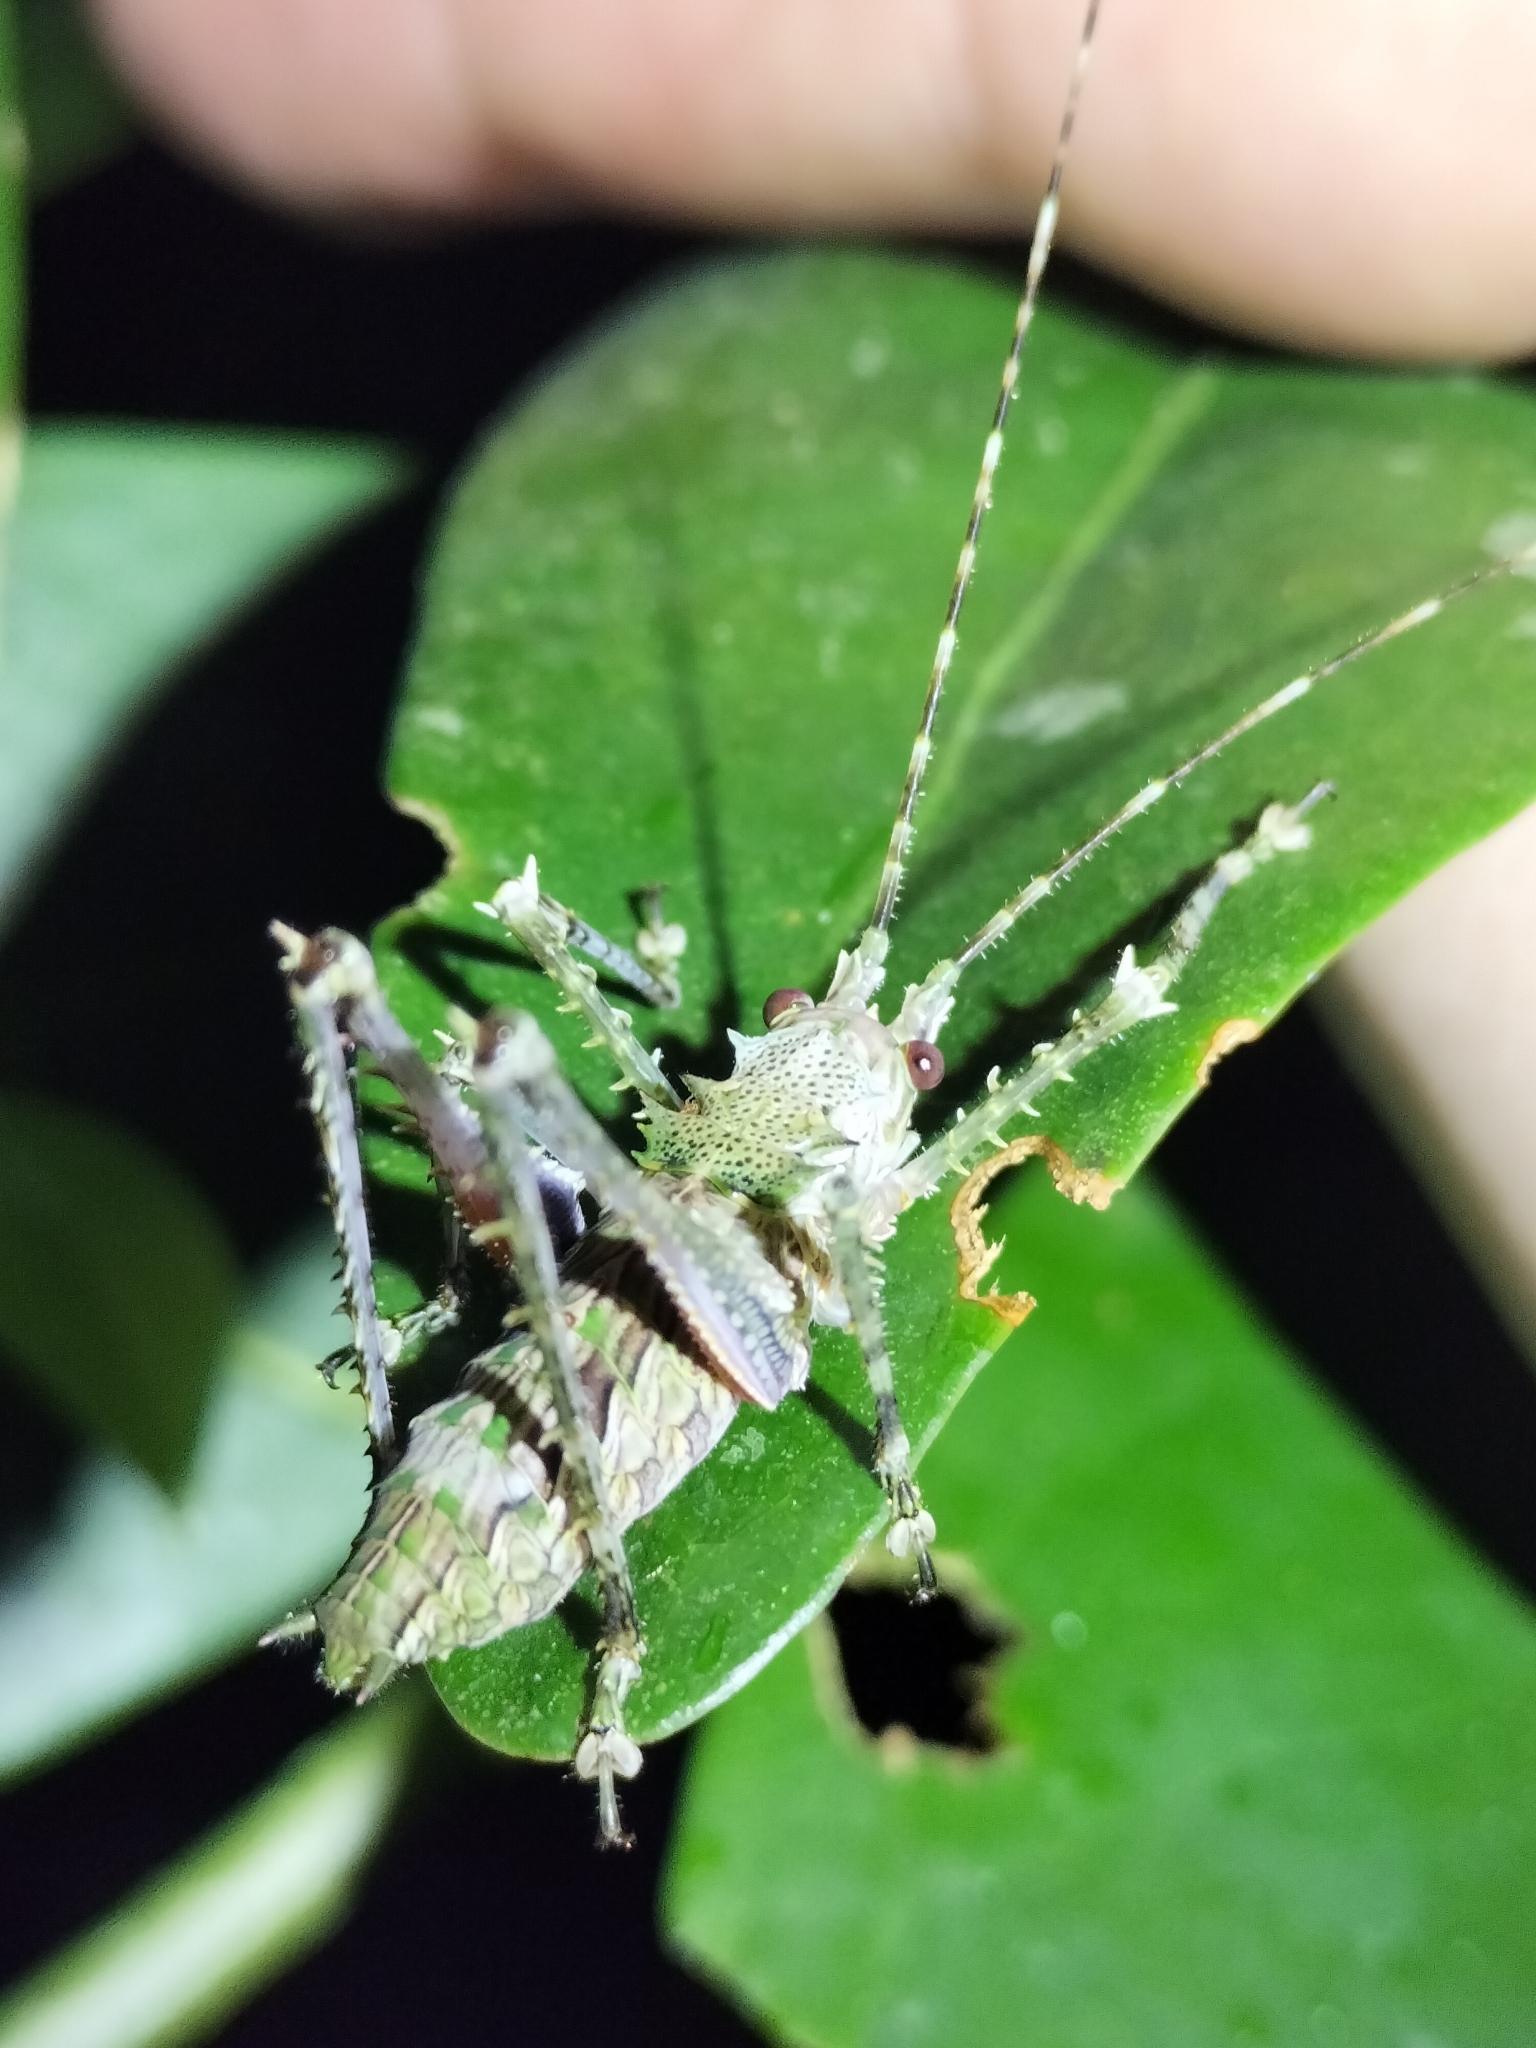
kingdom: Animalia
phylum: Arthropoda
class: Insecta
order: Orthoptera
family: Tettigoniidae
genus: Phricta
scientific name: Phricta spinosa
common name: Giant spiny forest katydid
